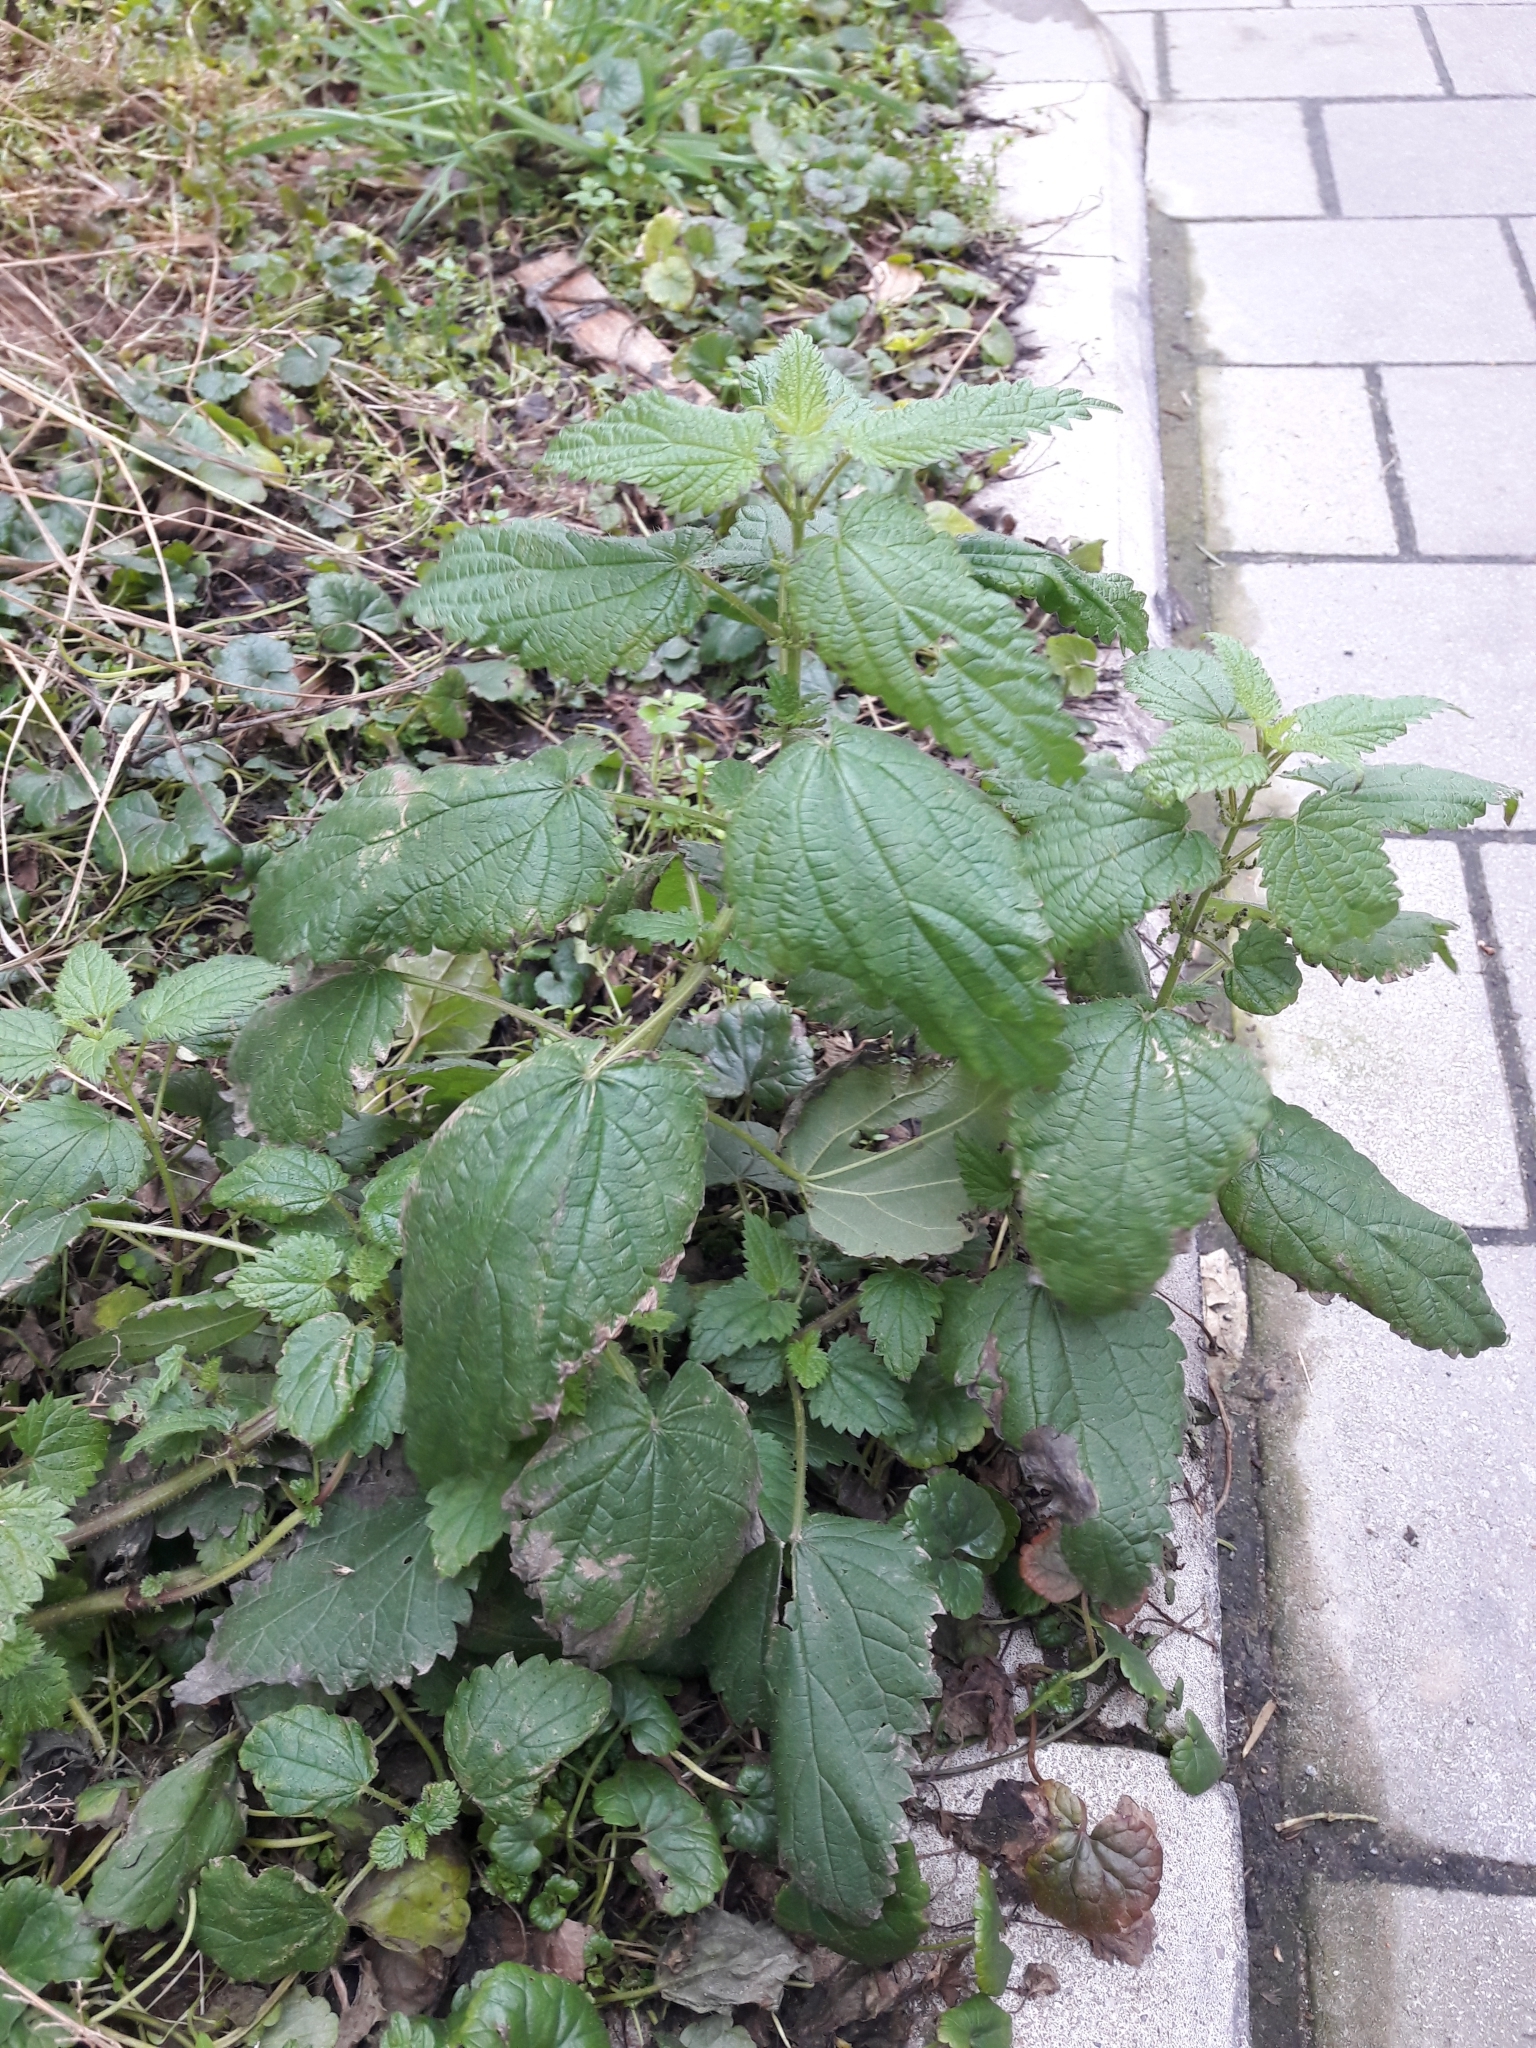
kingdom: Plantae
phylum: Tracheophyta
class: Magnoliopsida
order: Rosales
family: Urticaceae
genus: Urtica
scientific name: Urtica dioica
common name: Common nettle
